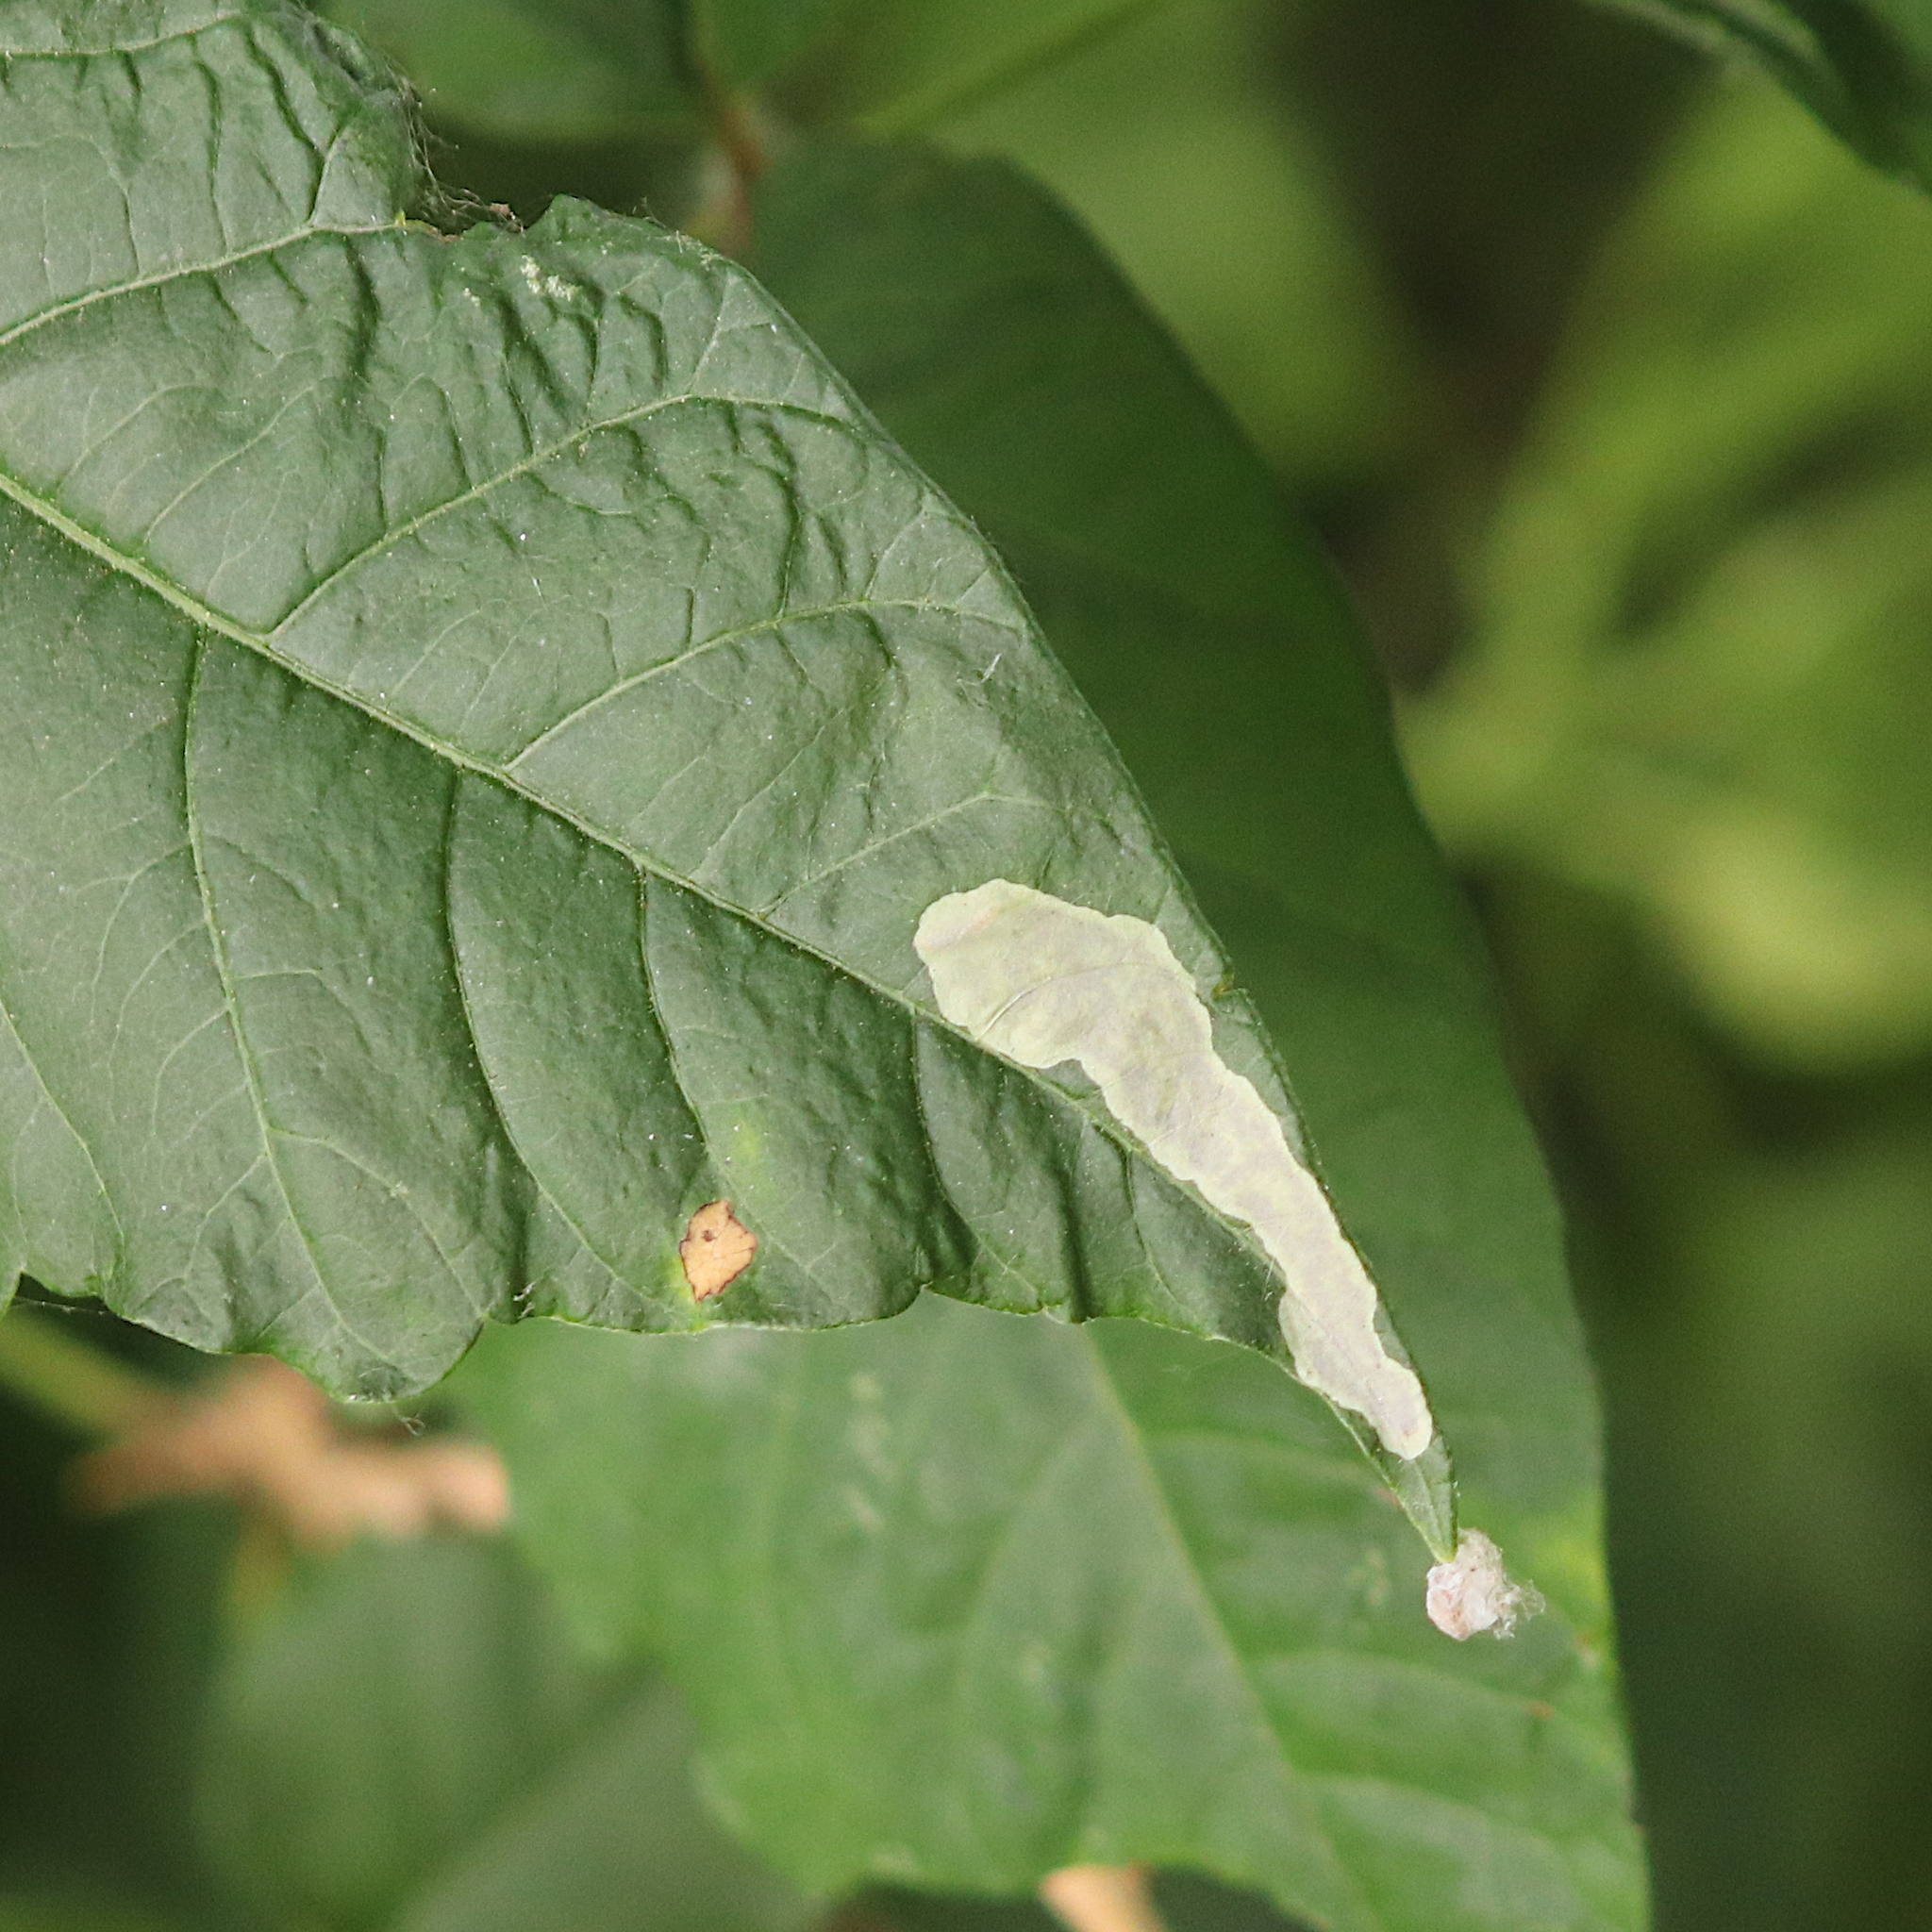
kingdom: Animalia
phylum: Arthropoda
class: Insecta
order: Lepidoptera
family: Gracillariidae
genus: Cameraria
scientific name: Cameraria guttifinitella
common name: Poison ivy leaf-miner moth
